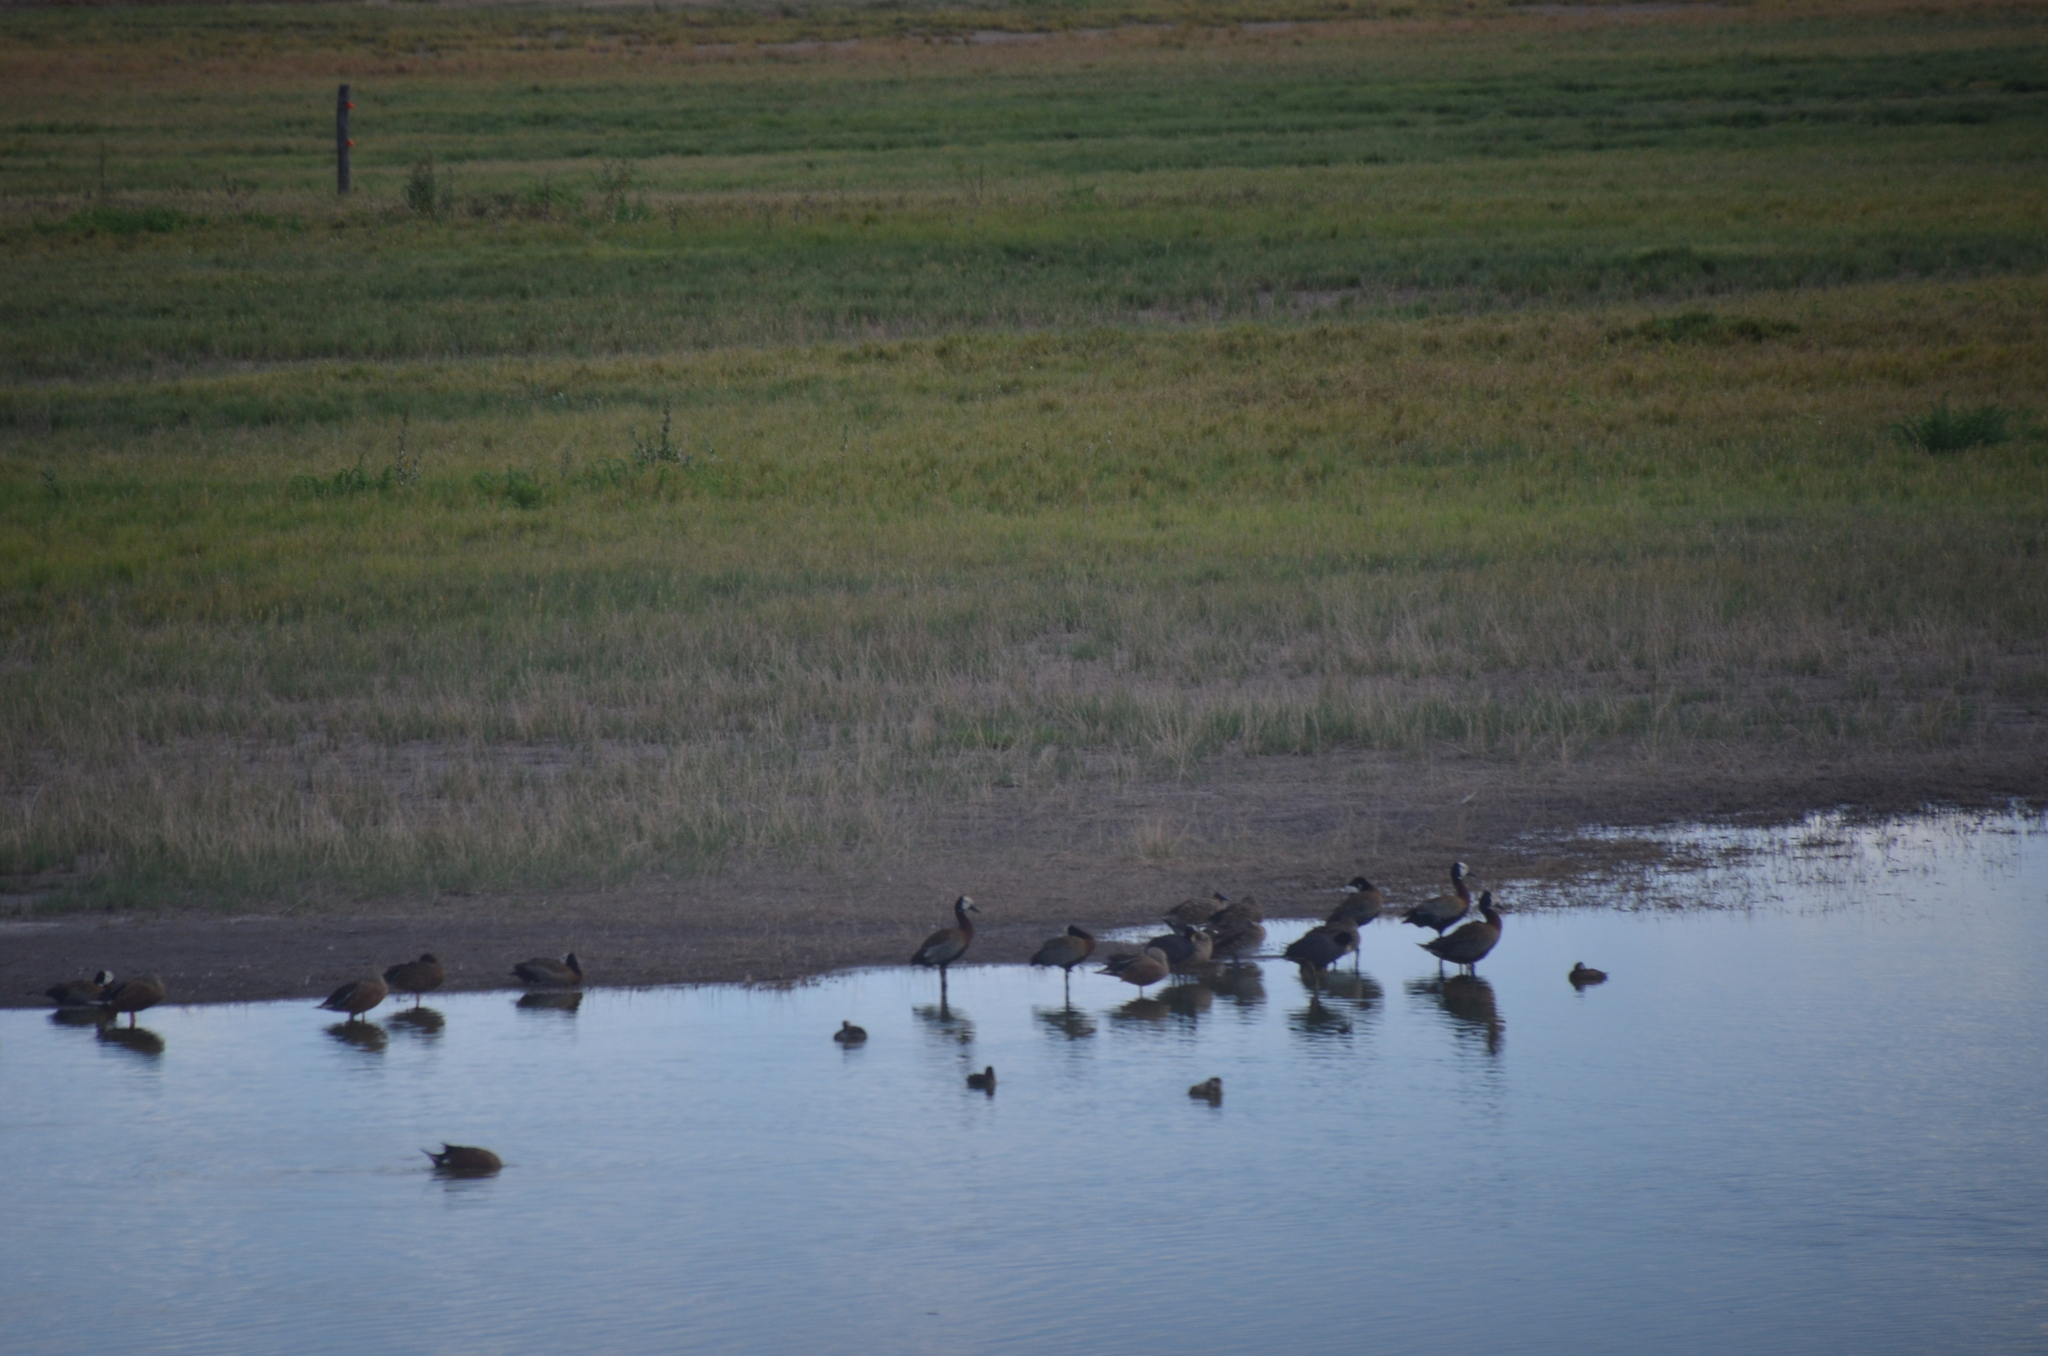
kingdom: Animalia
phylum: Chordata
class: Aves
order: Anseriformes
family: Anatidae
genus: Dendrocygna
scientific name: Dendrocygna viduata
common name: White-faced whistling duck
